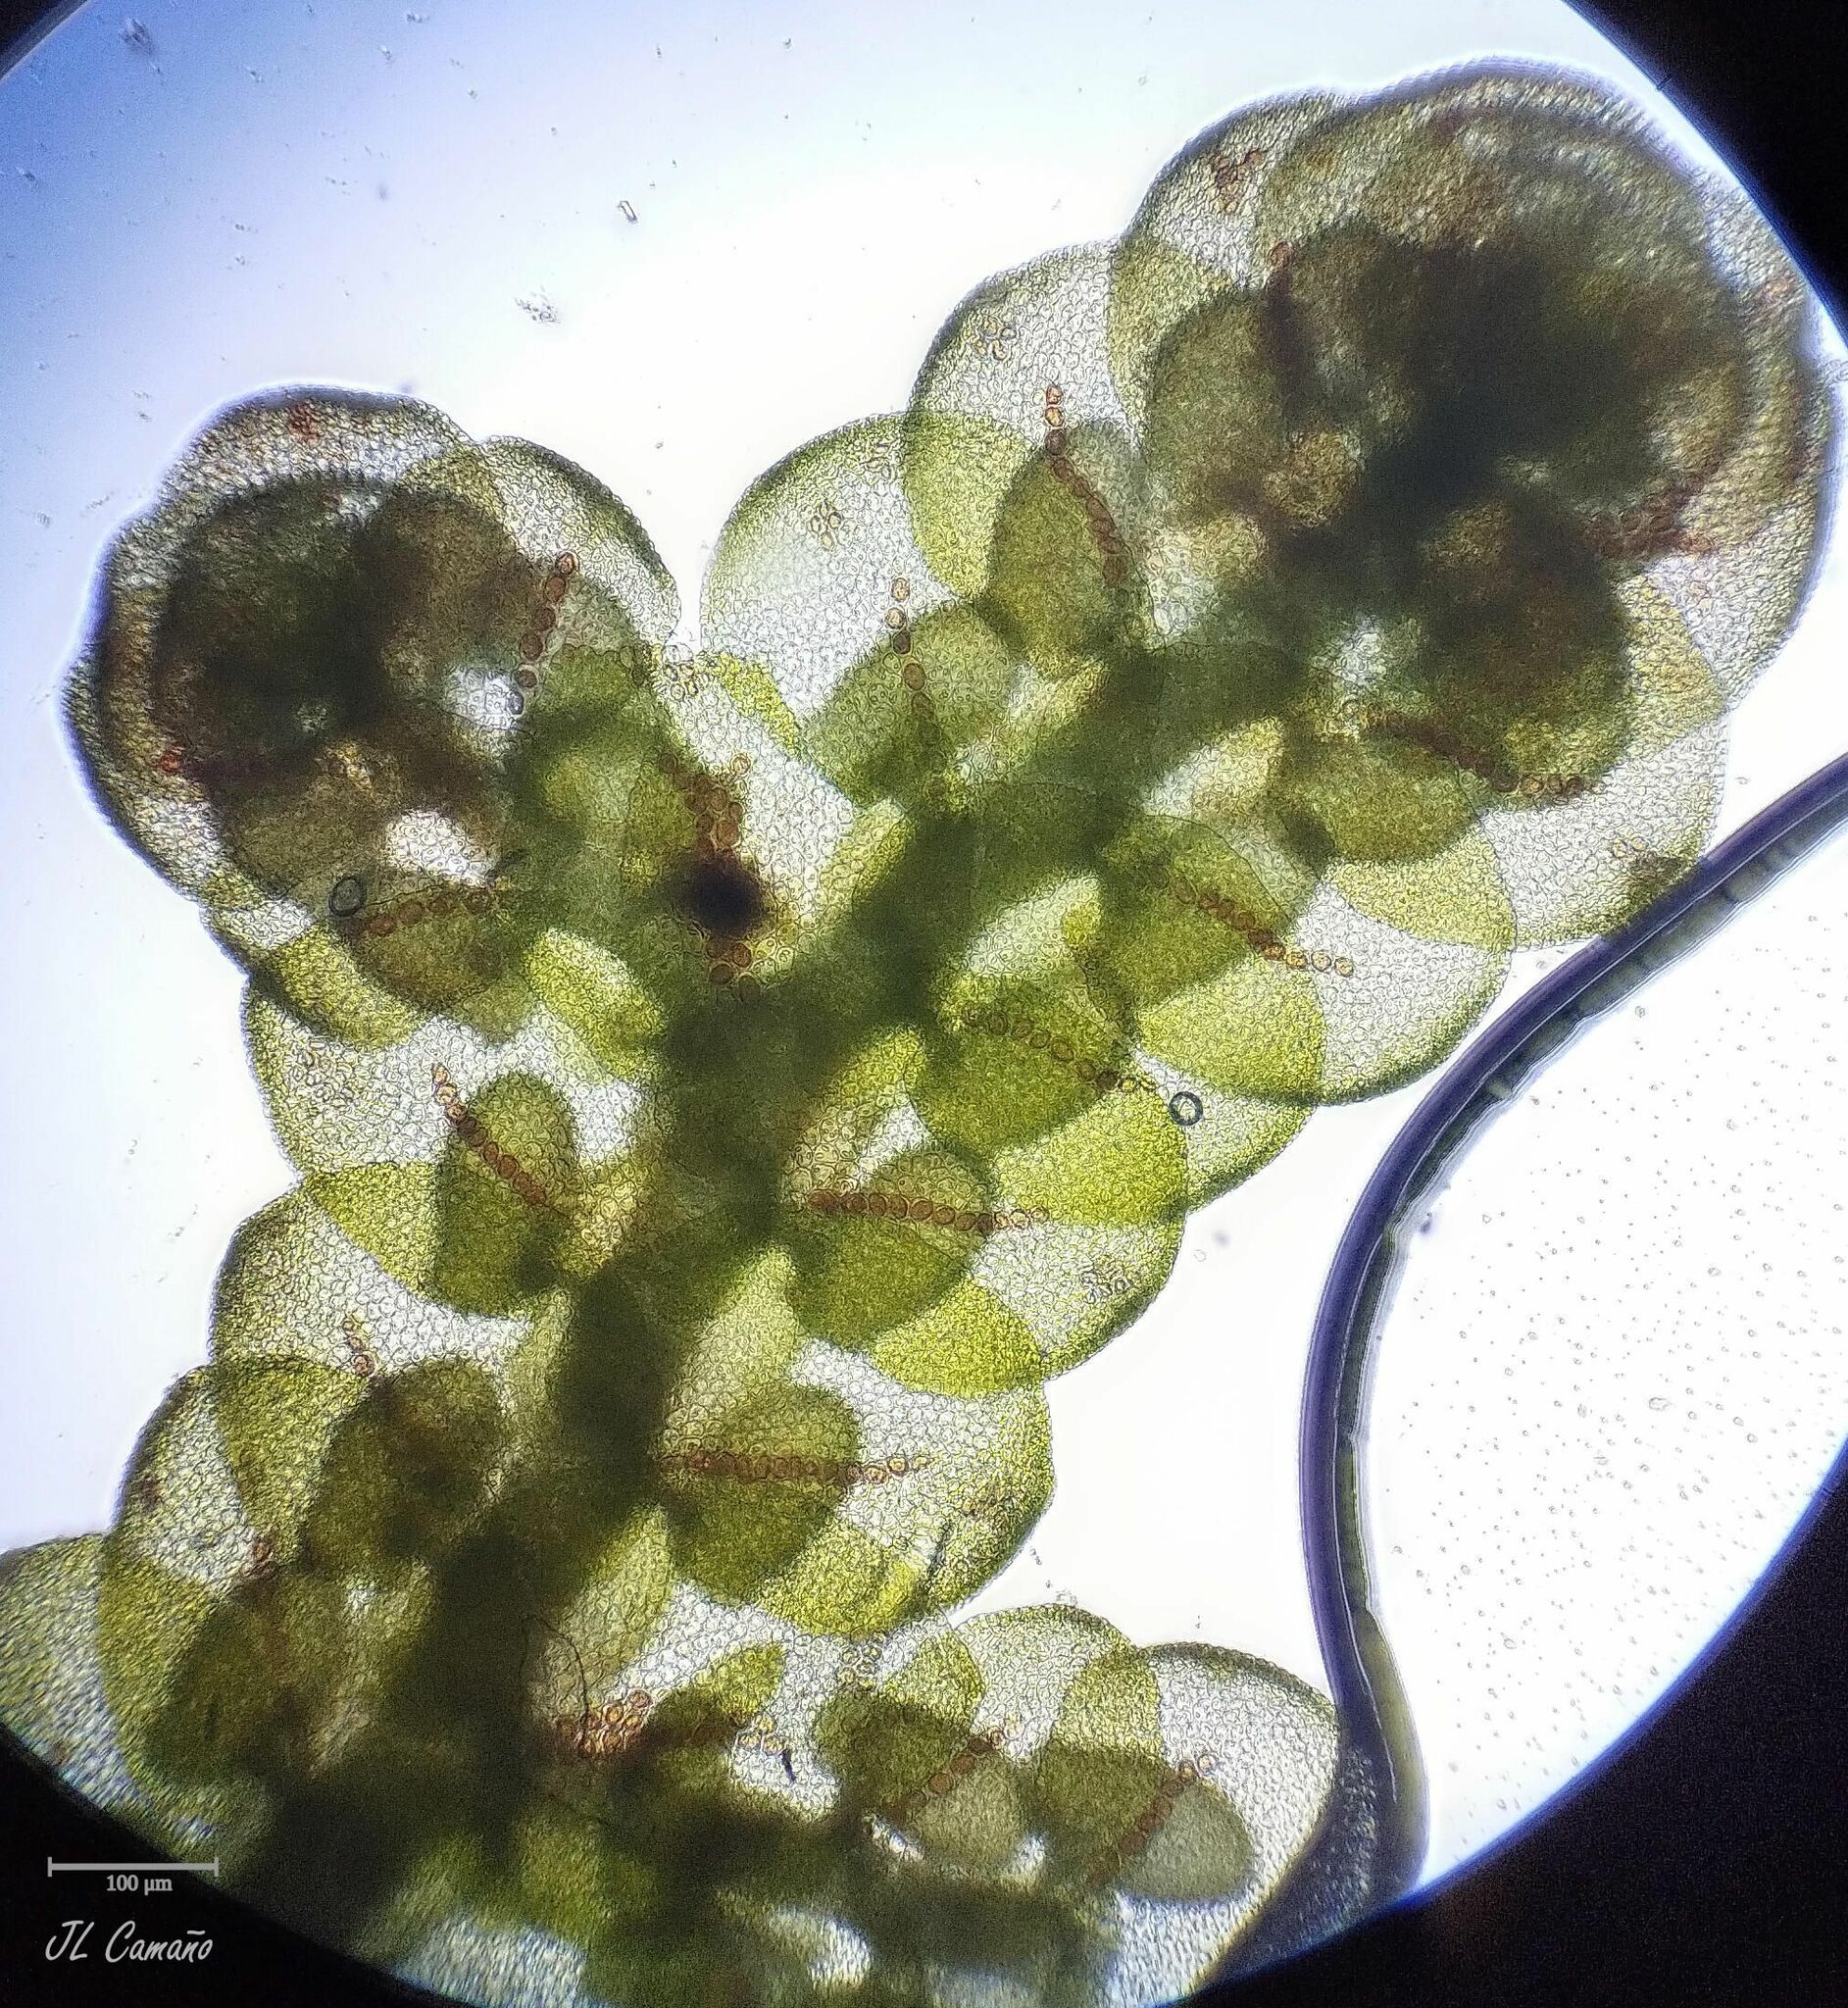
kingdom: Plantae
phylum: Marchantiophyta
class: Jungermanniopsida
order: Porellales
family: Frullaniaceae
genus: Frullania
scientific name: Frullania tamarisci
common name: Tamarisk scalewort
